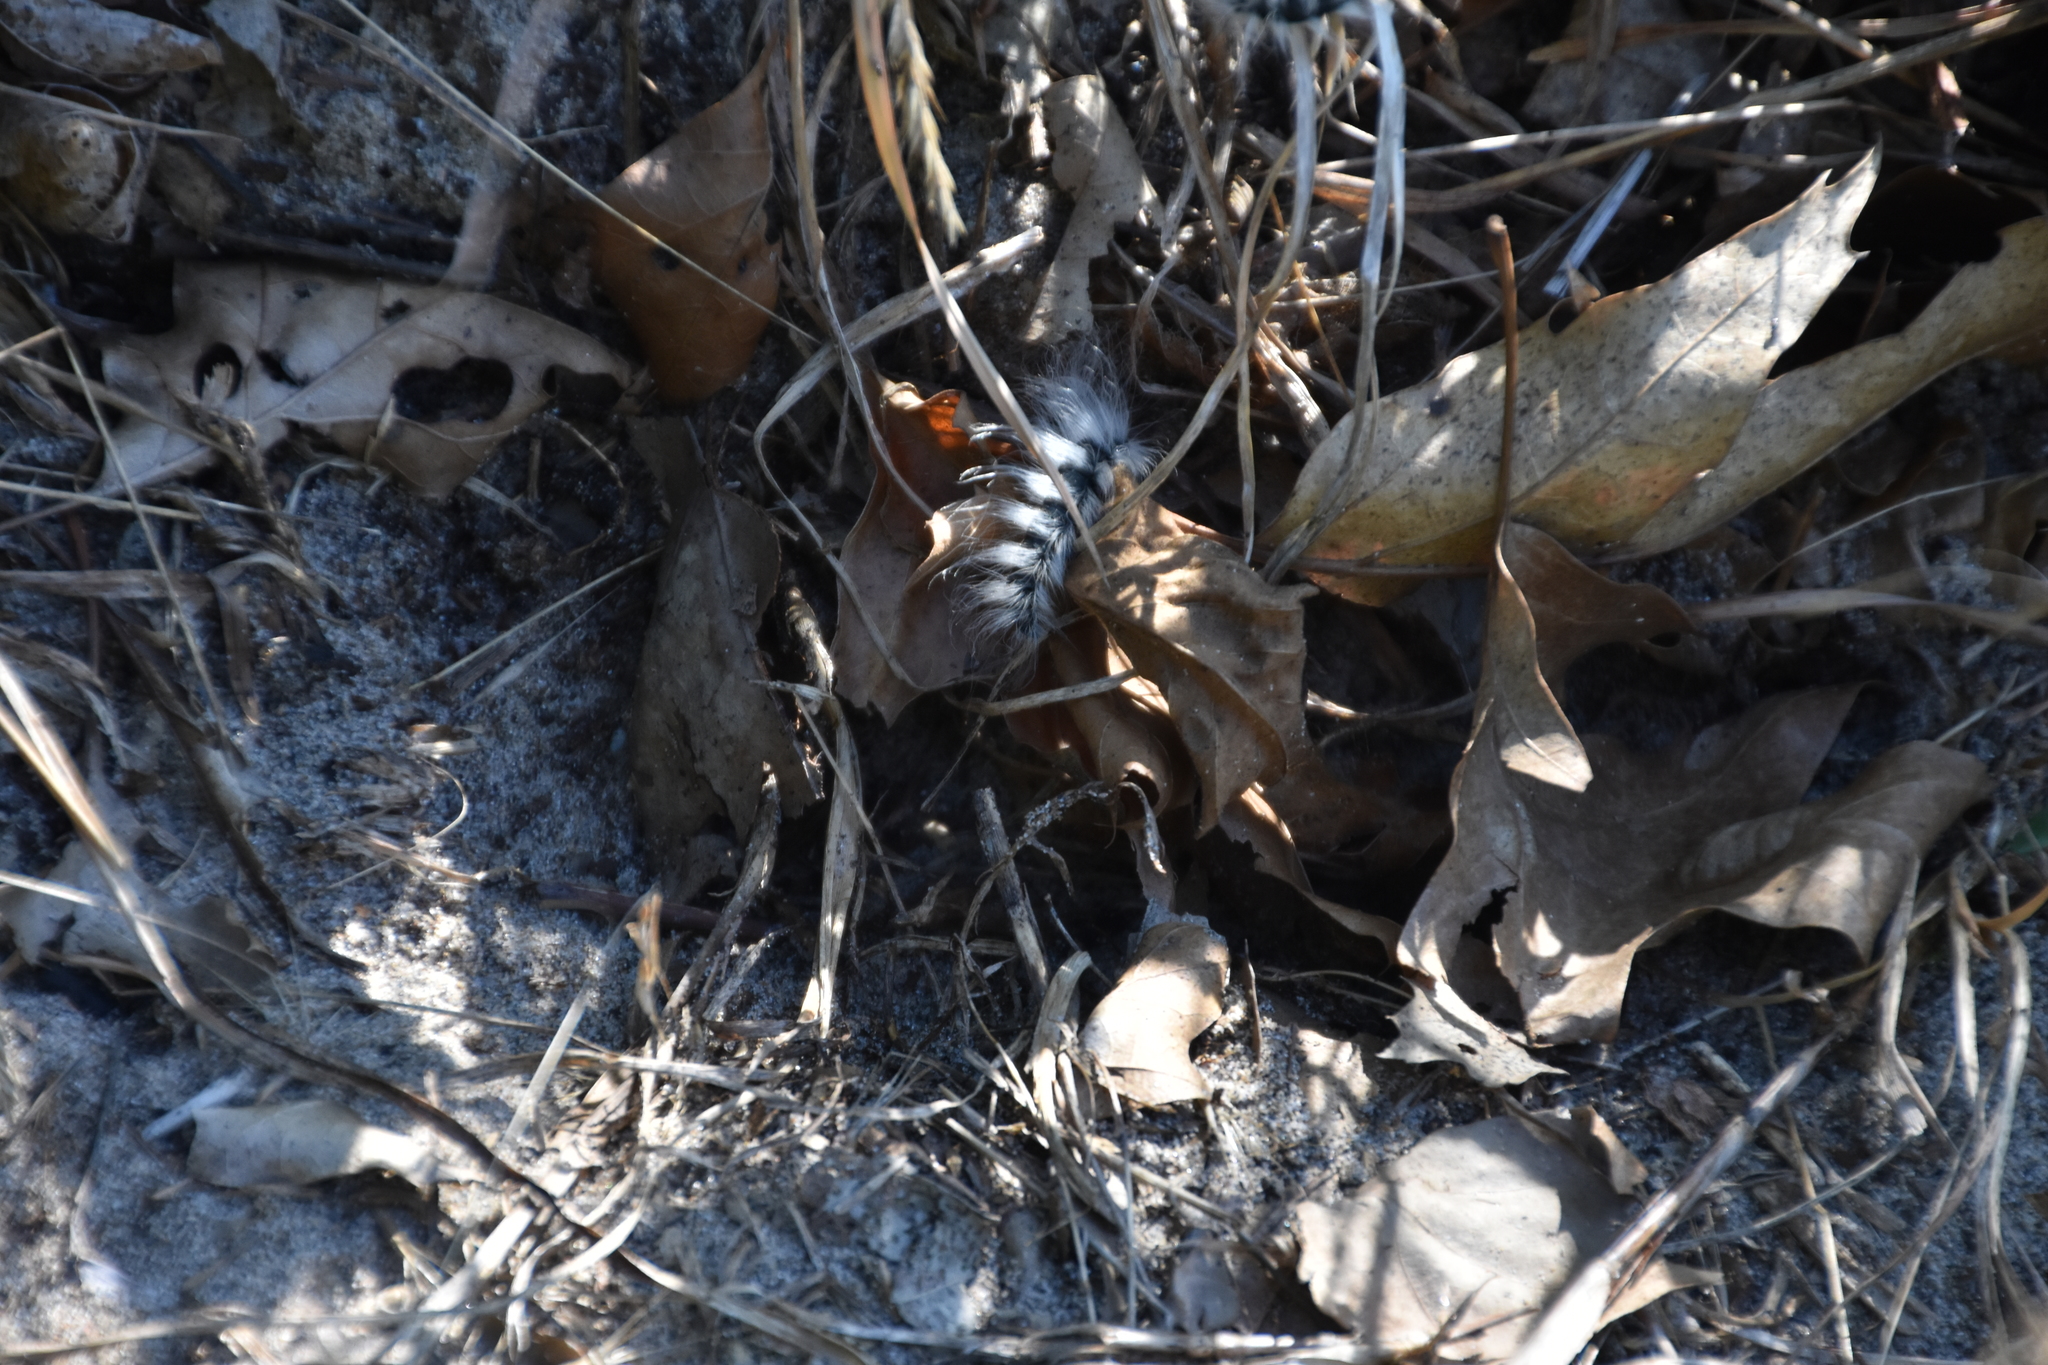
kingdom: Animalia
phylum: Arthropoda
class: Insecta
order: Lepidoptera
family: Notodontidae
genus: Datana
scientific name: Datana integerrima
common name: Walnut caterpillar
